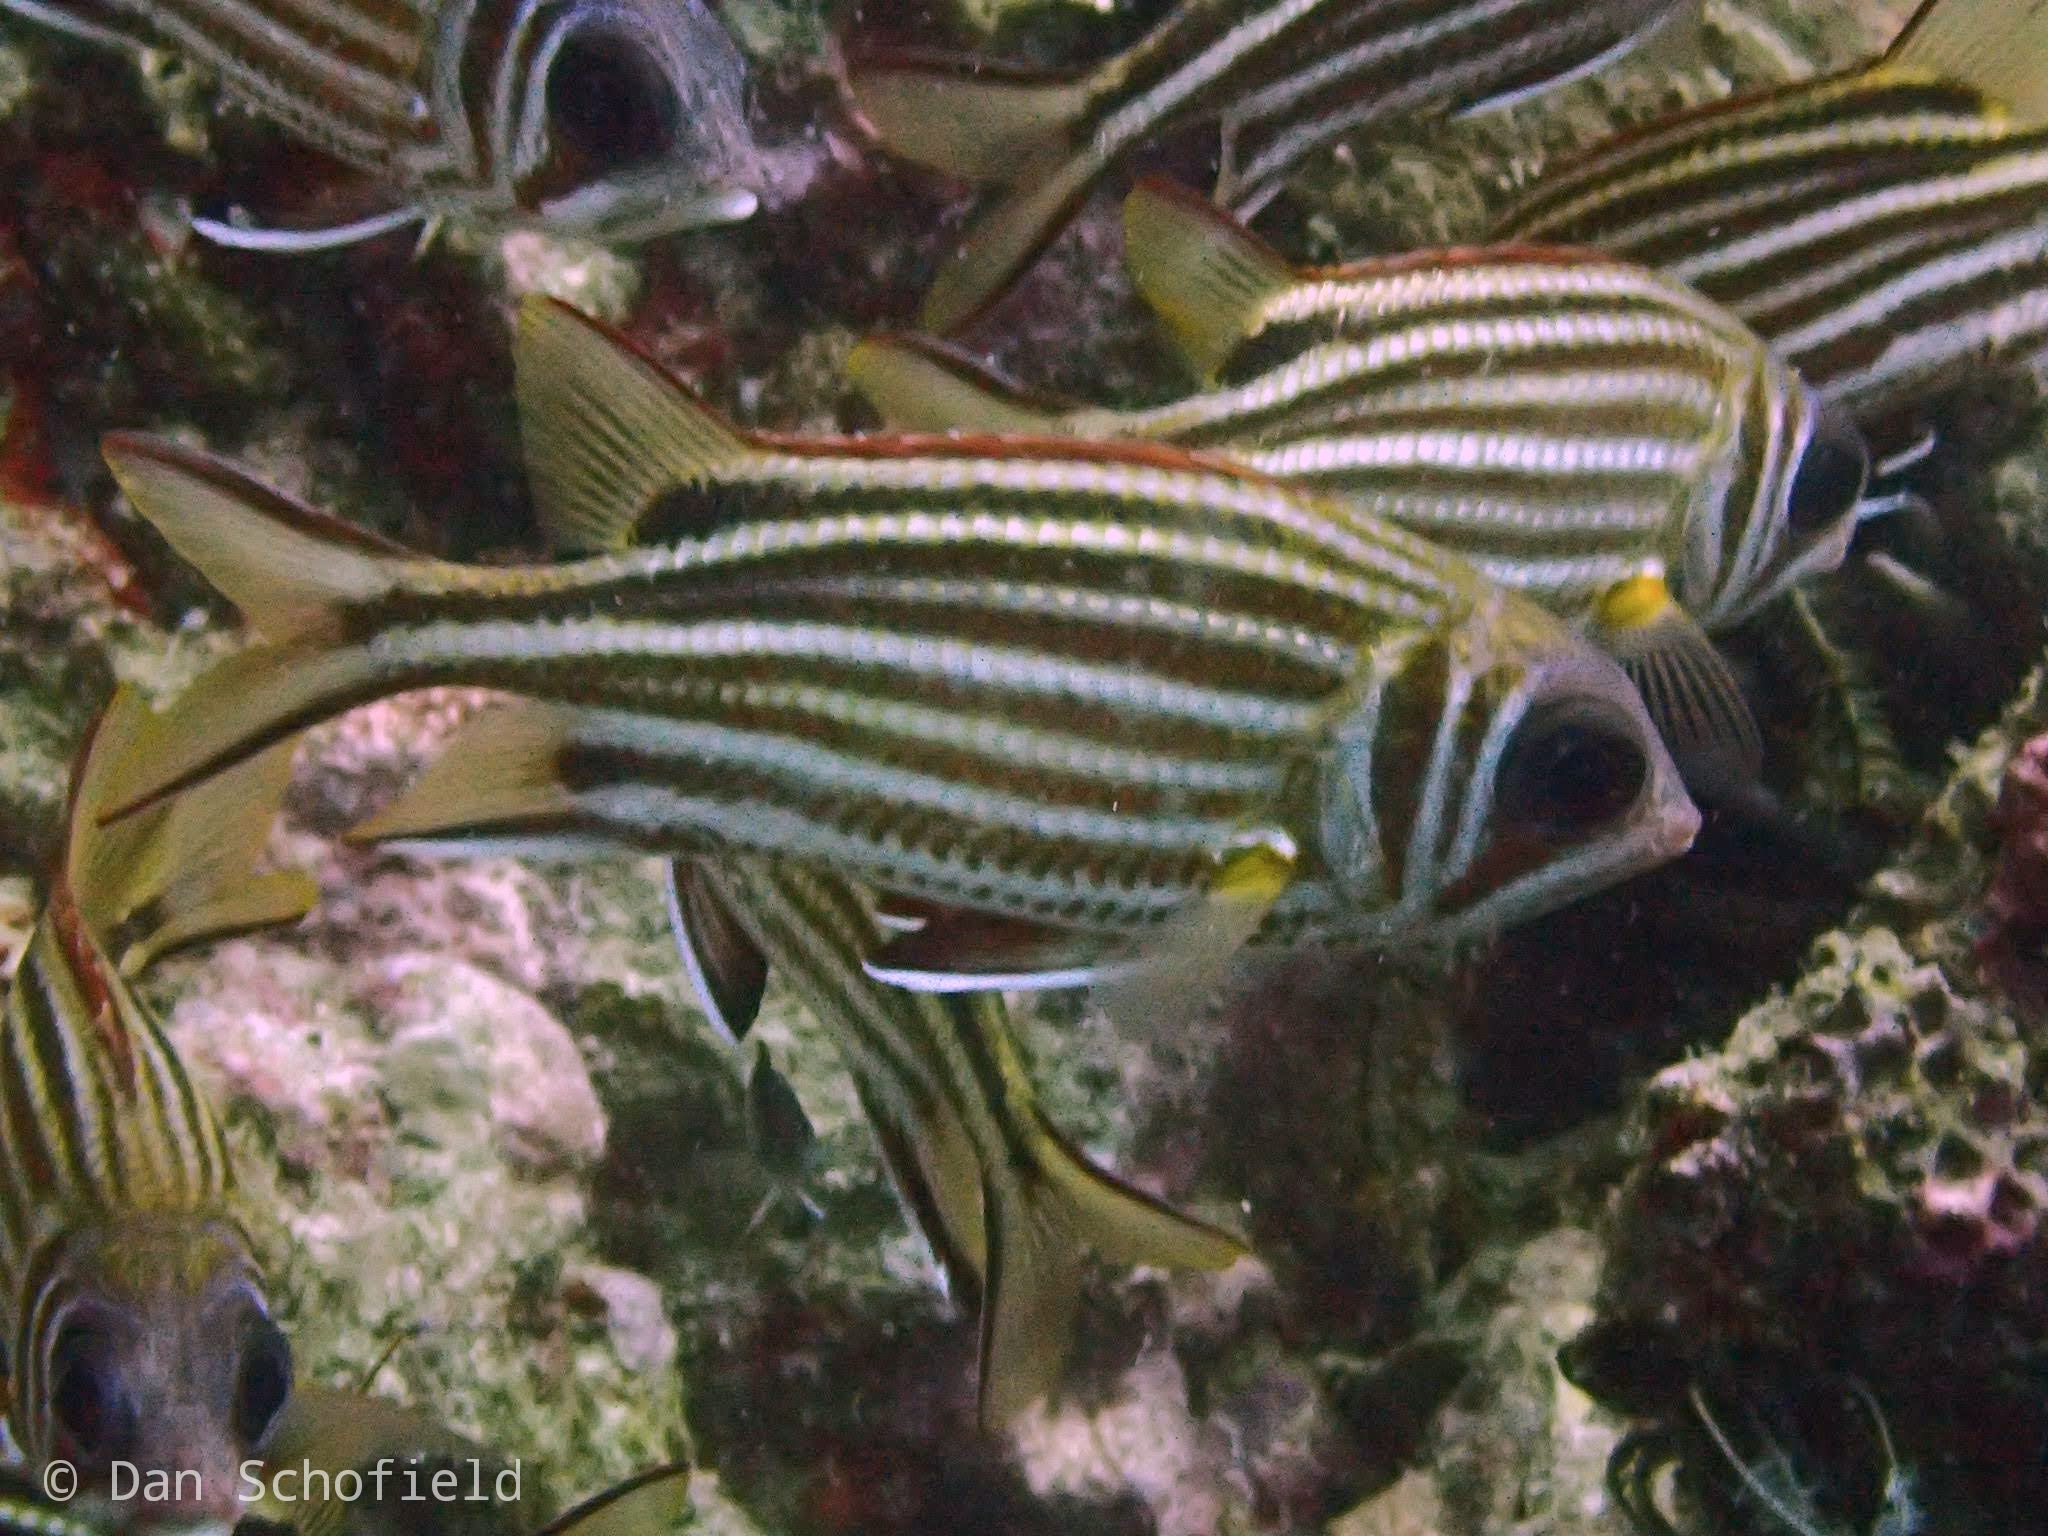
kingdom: Animalia
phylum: Chordata
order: Beryciformes
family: Holocentridae
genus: Sargocentron
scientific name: Sargocentron cornutum
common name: Horned squirrelfish
